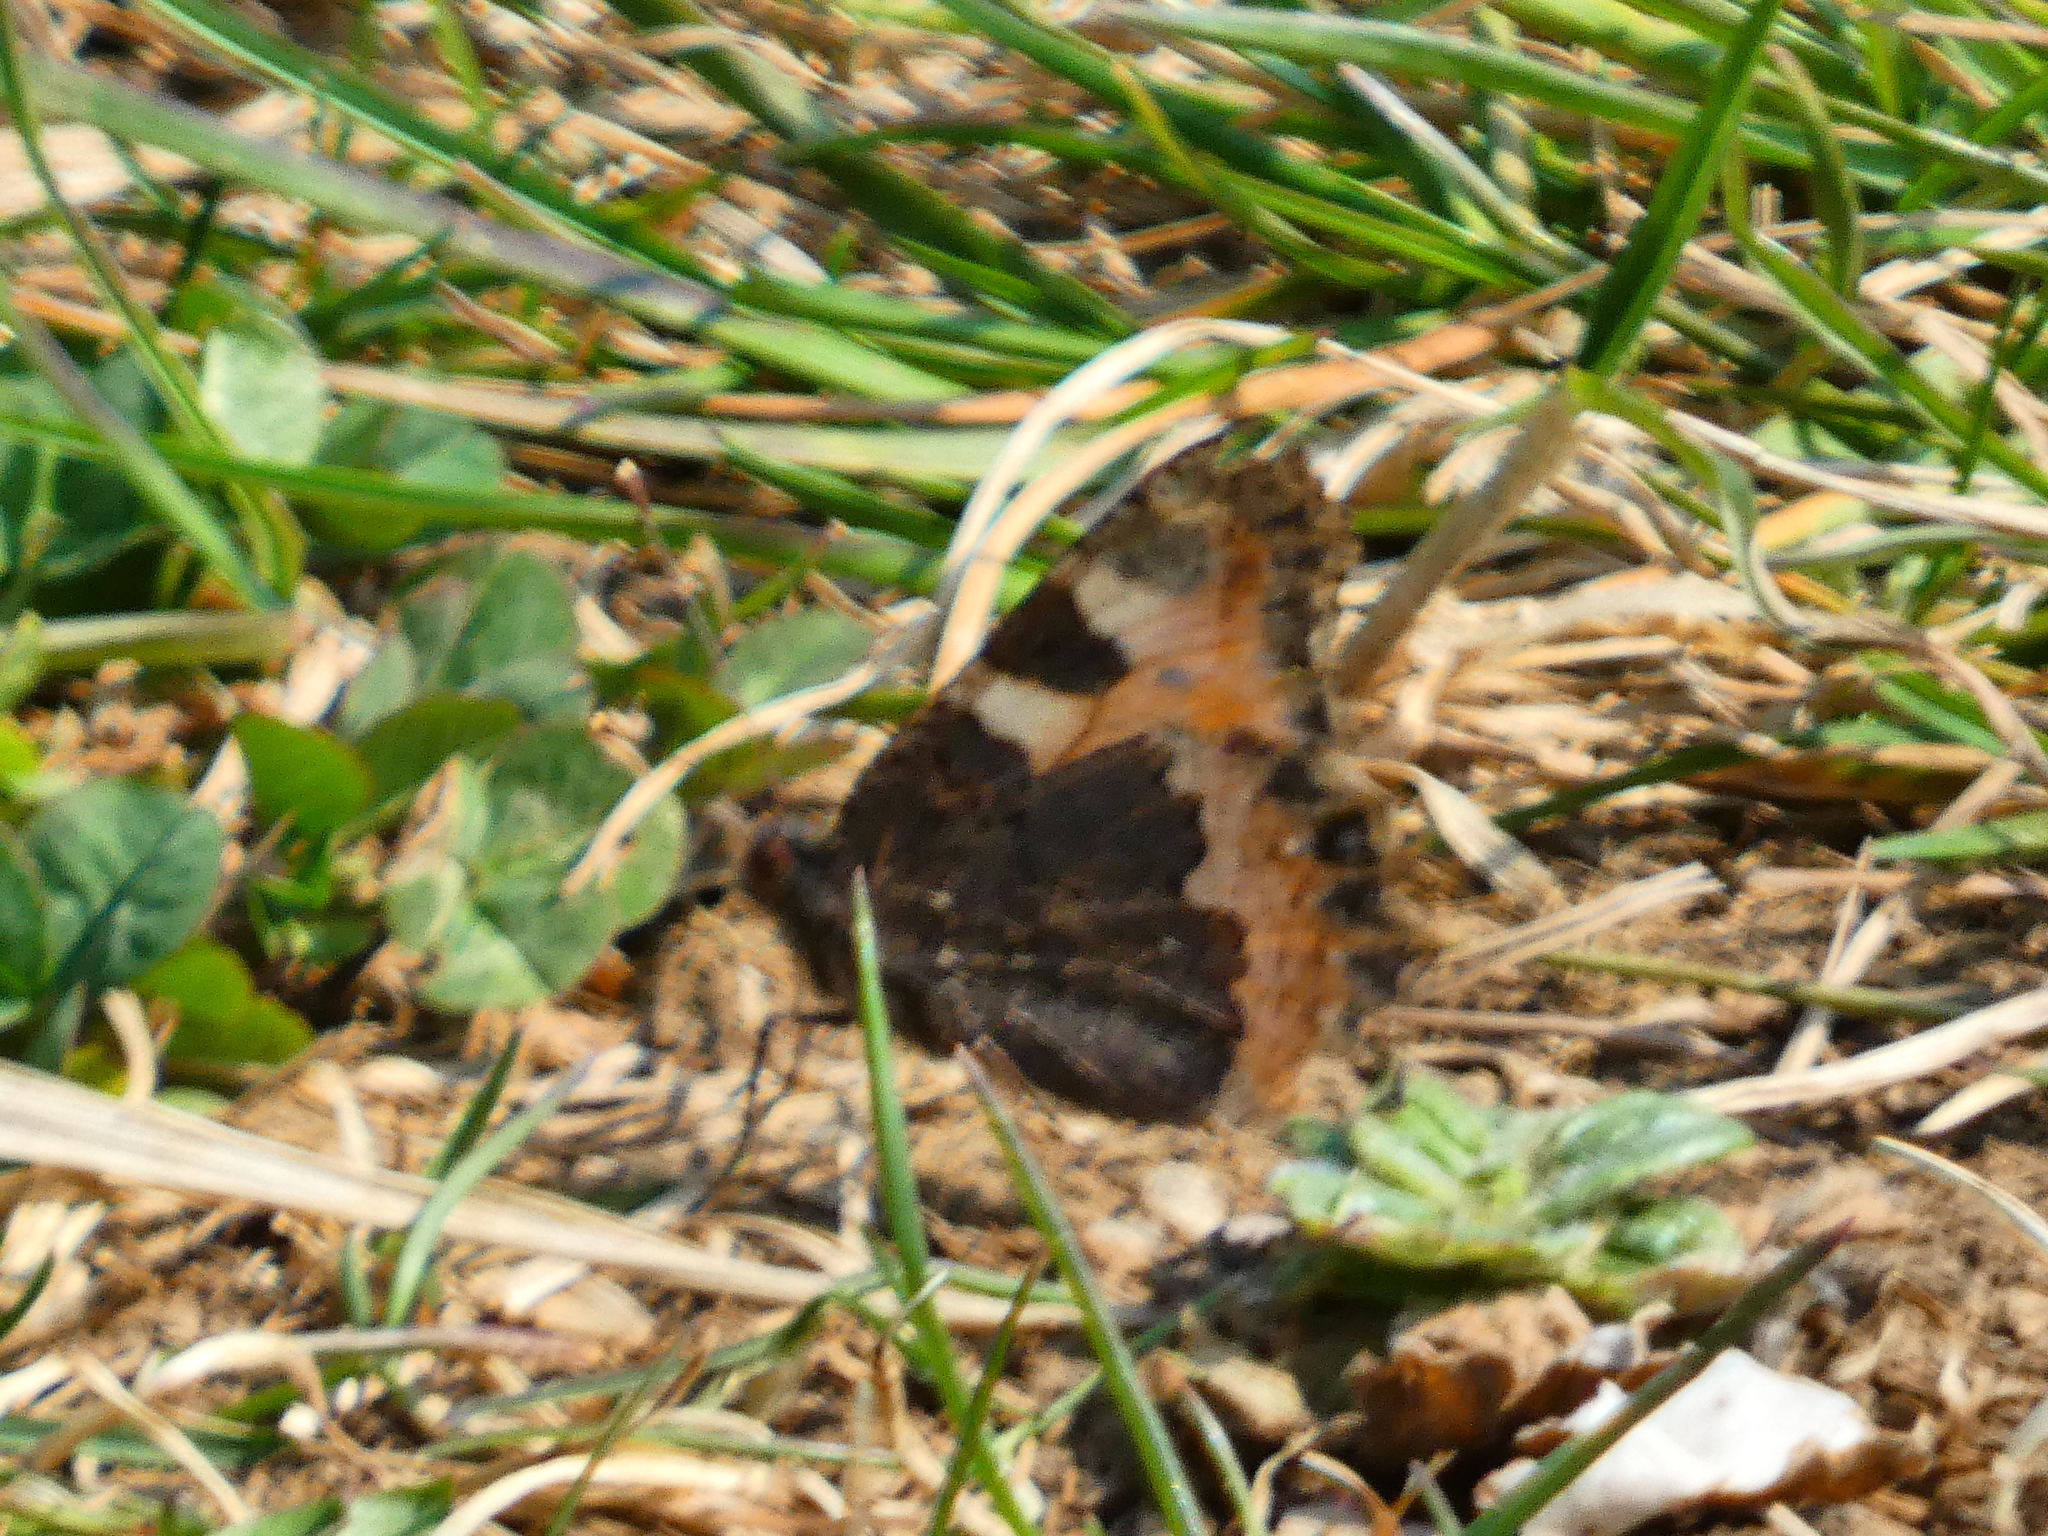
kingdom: Animalia
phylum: Arthropoda
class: Insecta
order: Lepidoptera
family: Nymphalidae
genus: Aglais
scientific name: Aglais urticae
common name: Small tortoiseshell
